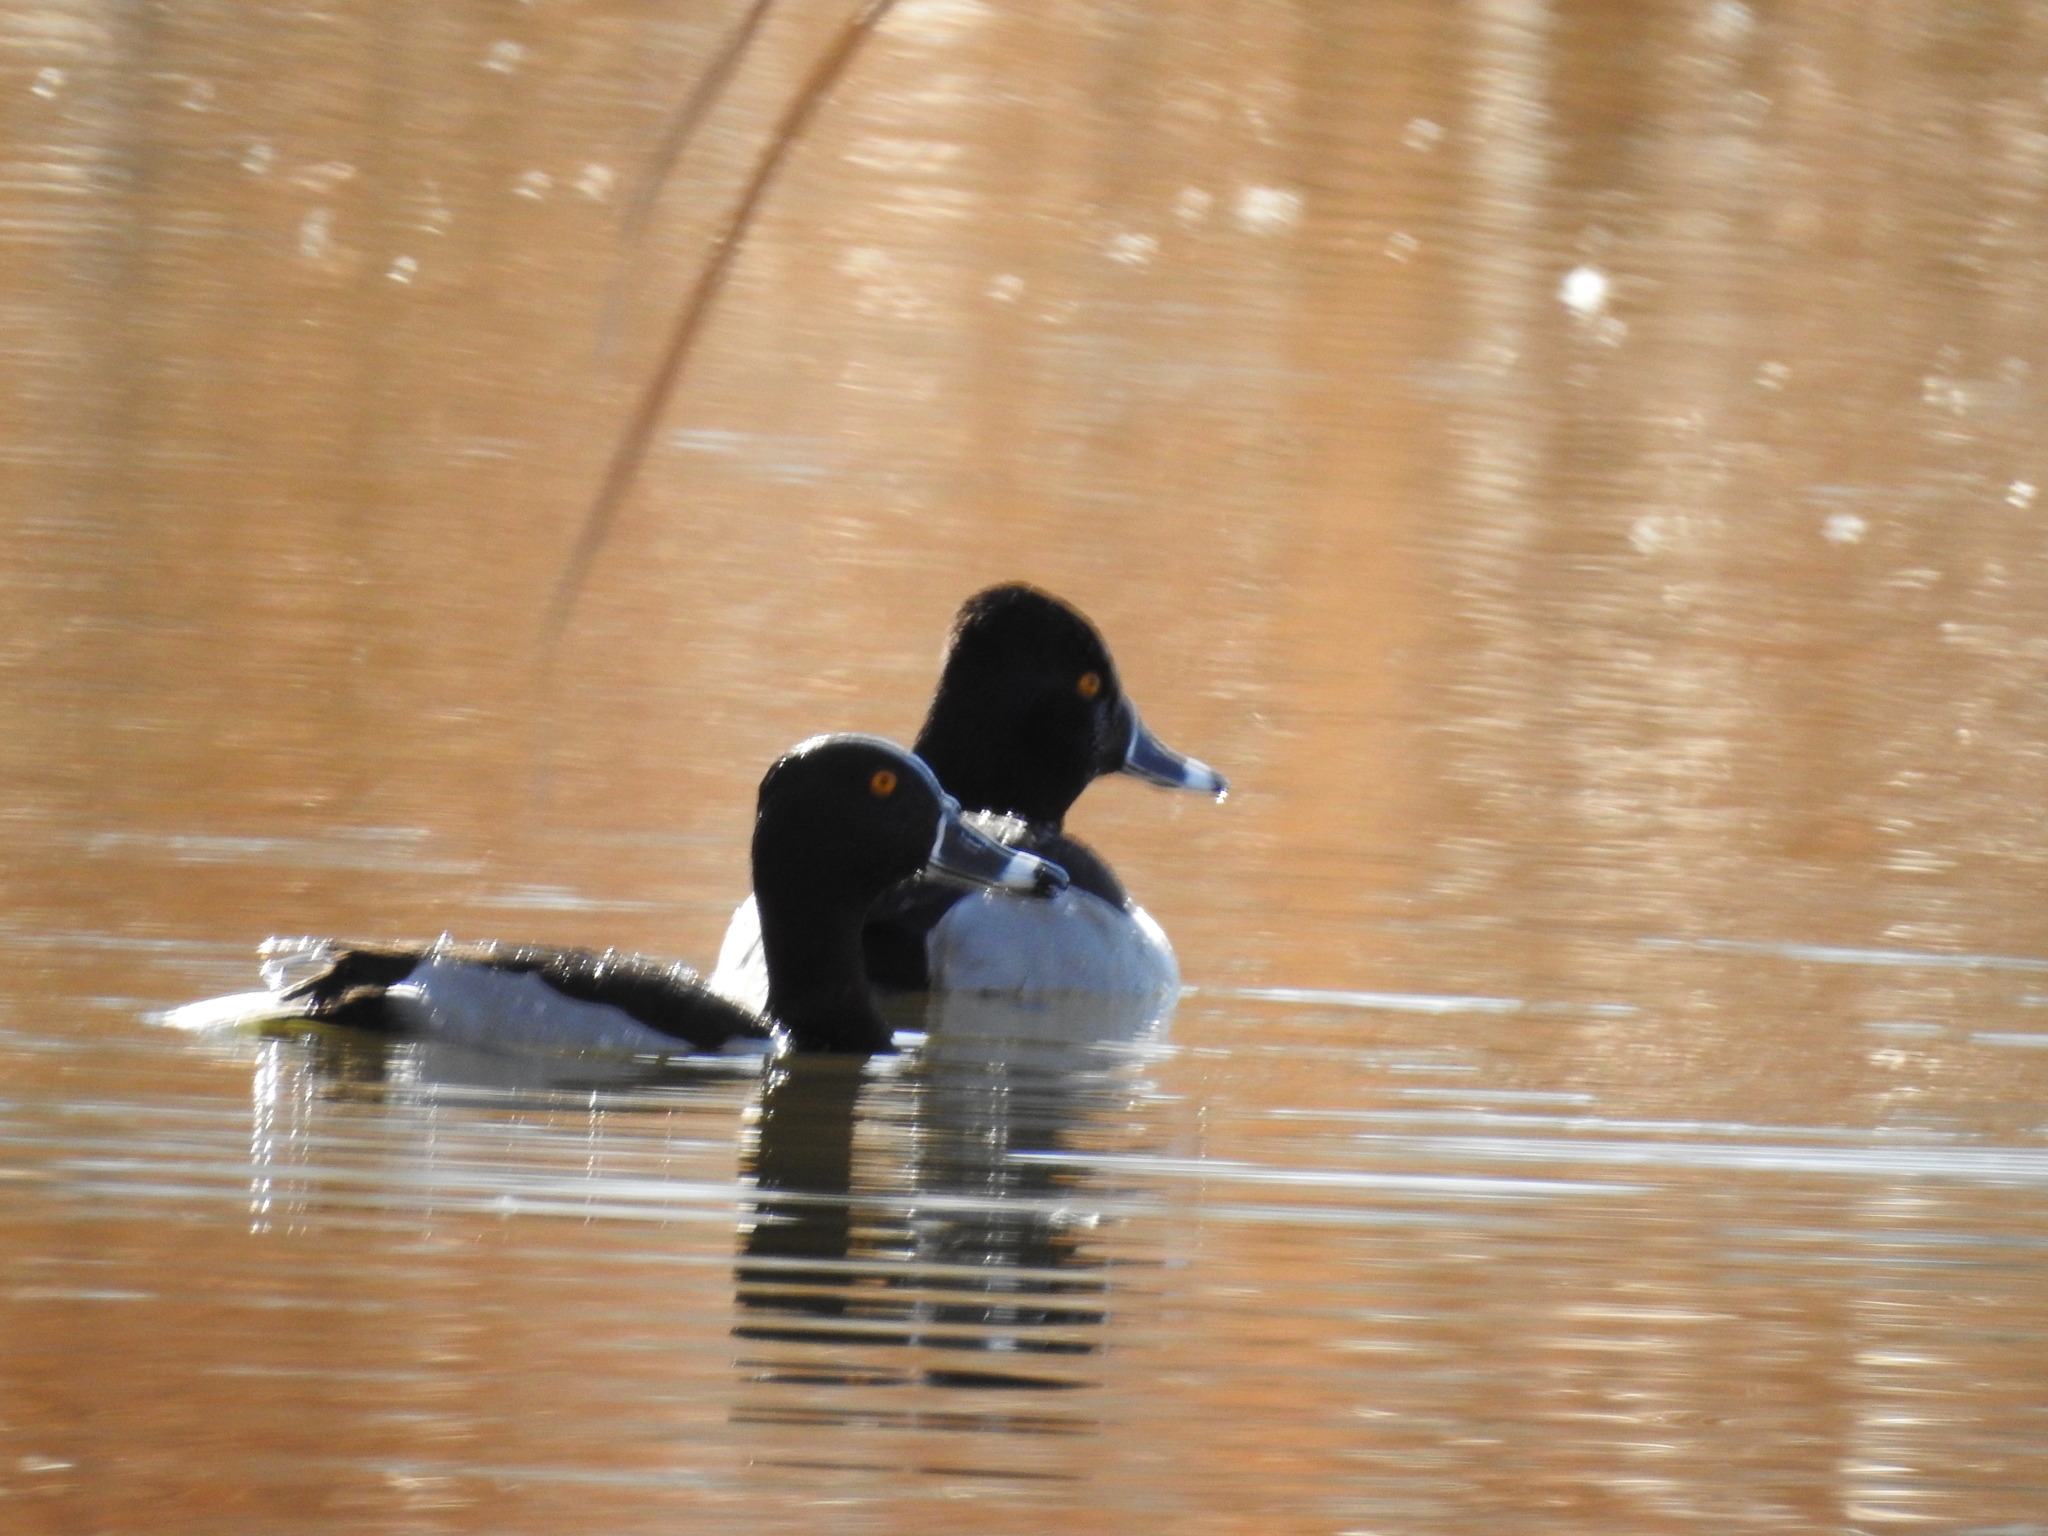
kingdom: Animalia
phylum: Chordata
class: Aves
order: Anseriformes
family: Anatidae
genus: Aythya
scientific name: Aythya collaris
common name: Ring-necked duck
